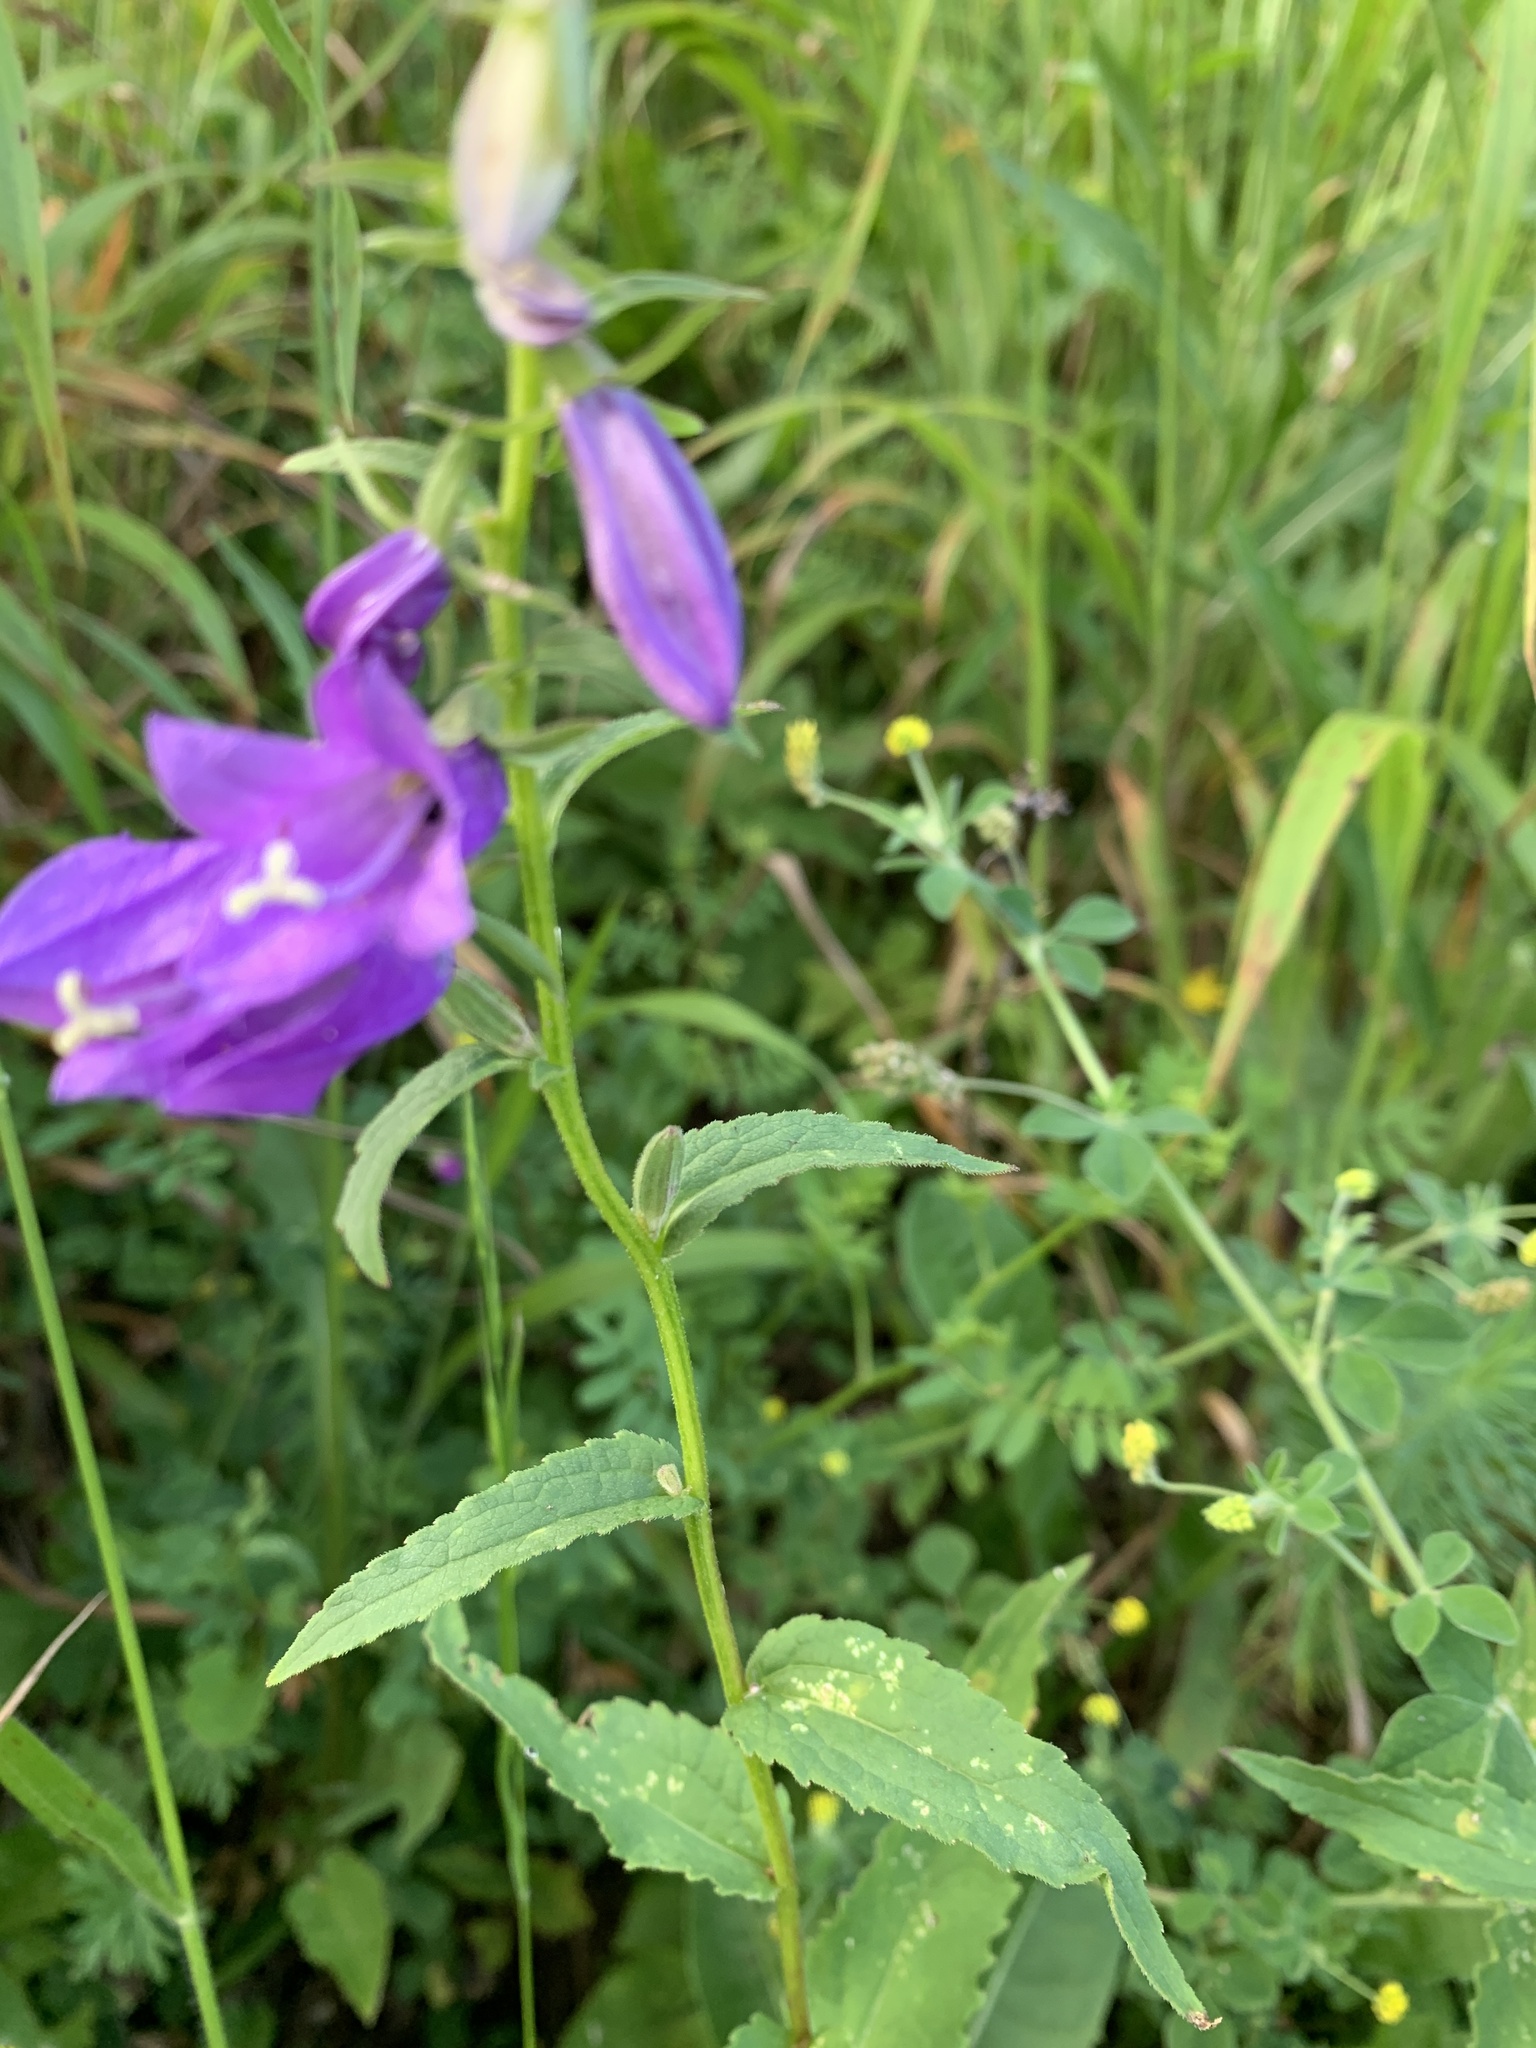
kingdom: Plantae
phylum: Tracheophyta
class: Magnoliopsida
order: Asterales
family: Campanulaceae
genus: Campanula
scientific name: Campanula rapunculoides
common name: Creeping bellflower
